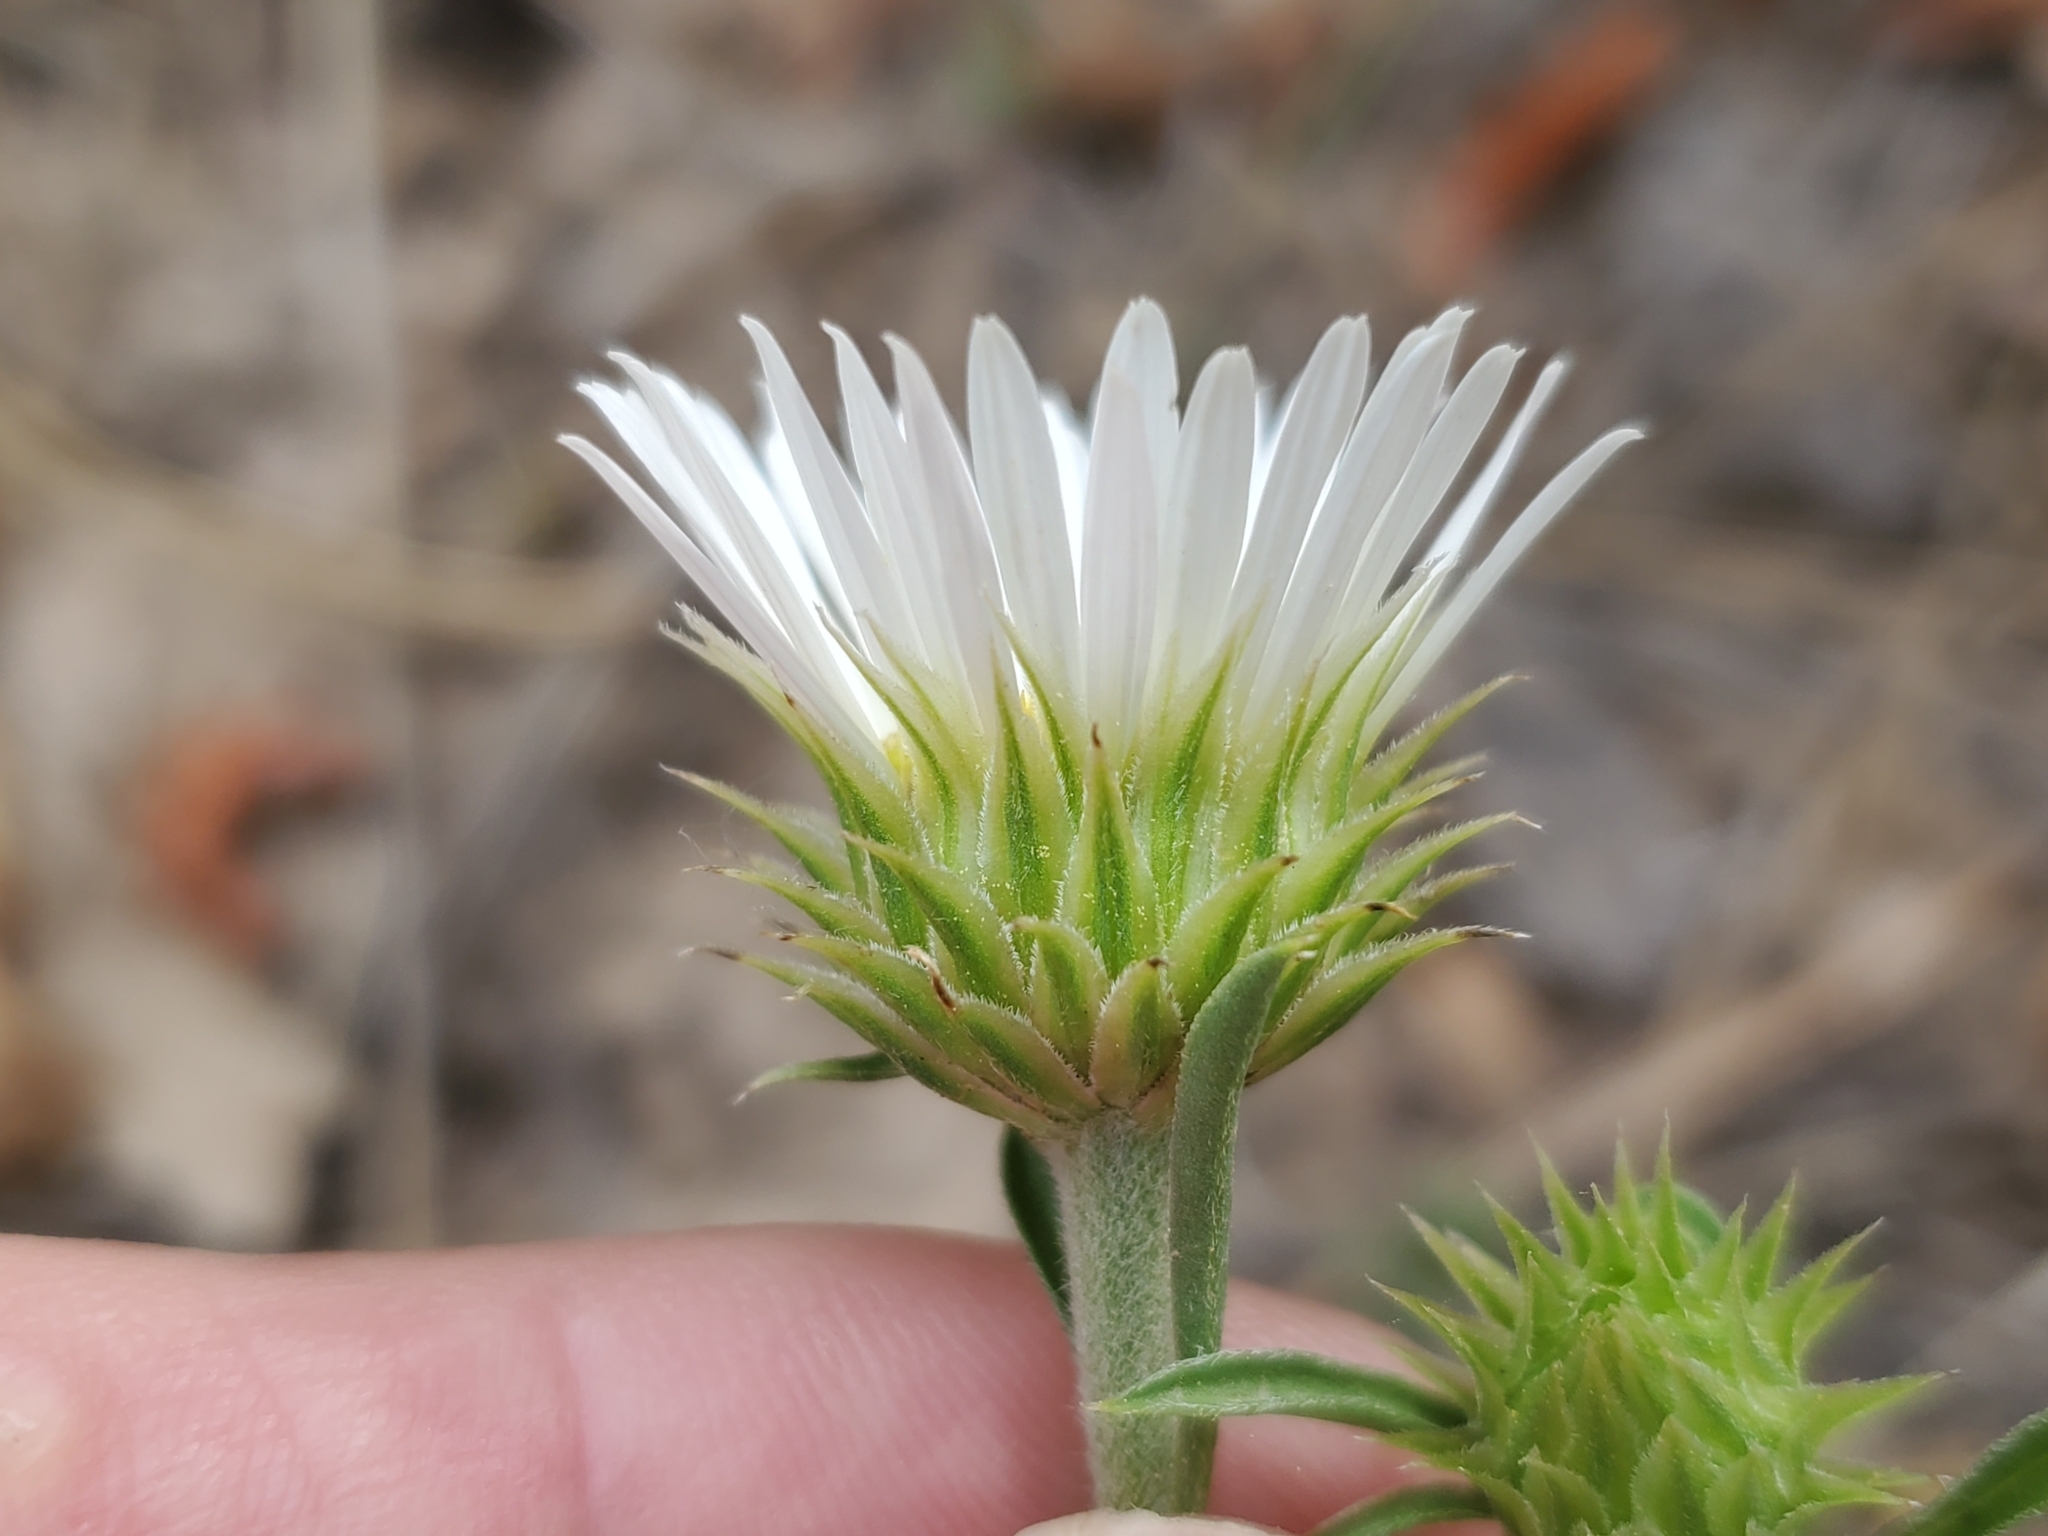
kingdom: Plantae
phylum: Tracheophyta
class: Magnoliopsida
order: Asterales
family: Asteraceae
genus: Townsendia
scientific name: Townsendia eximia
